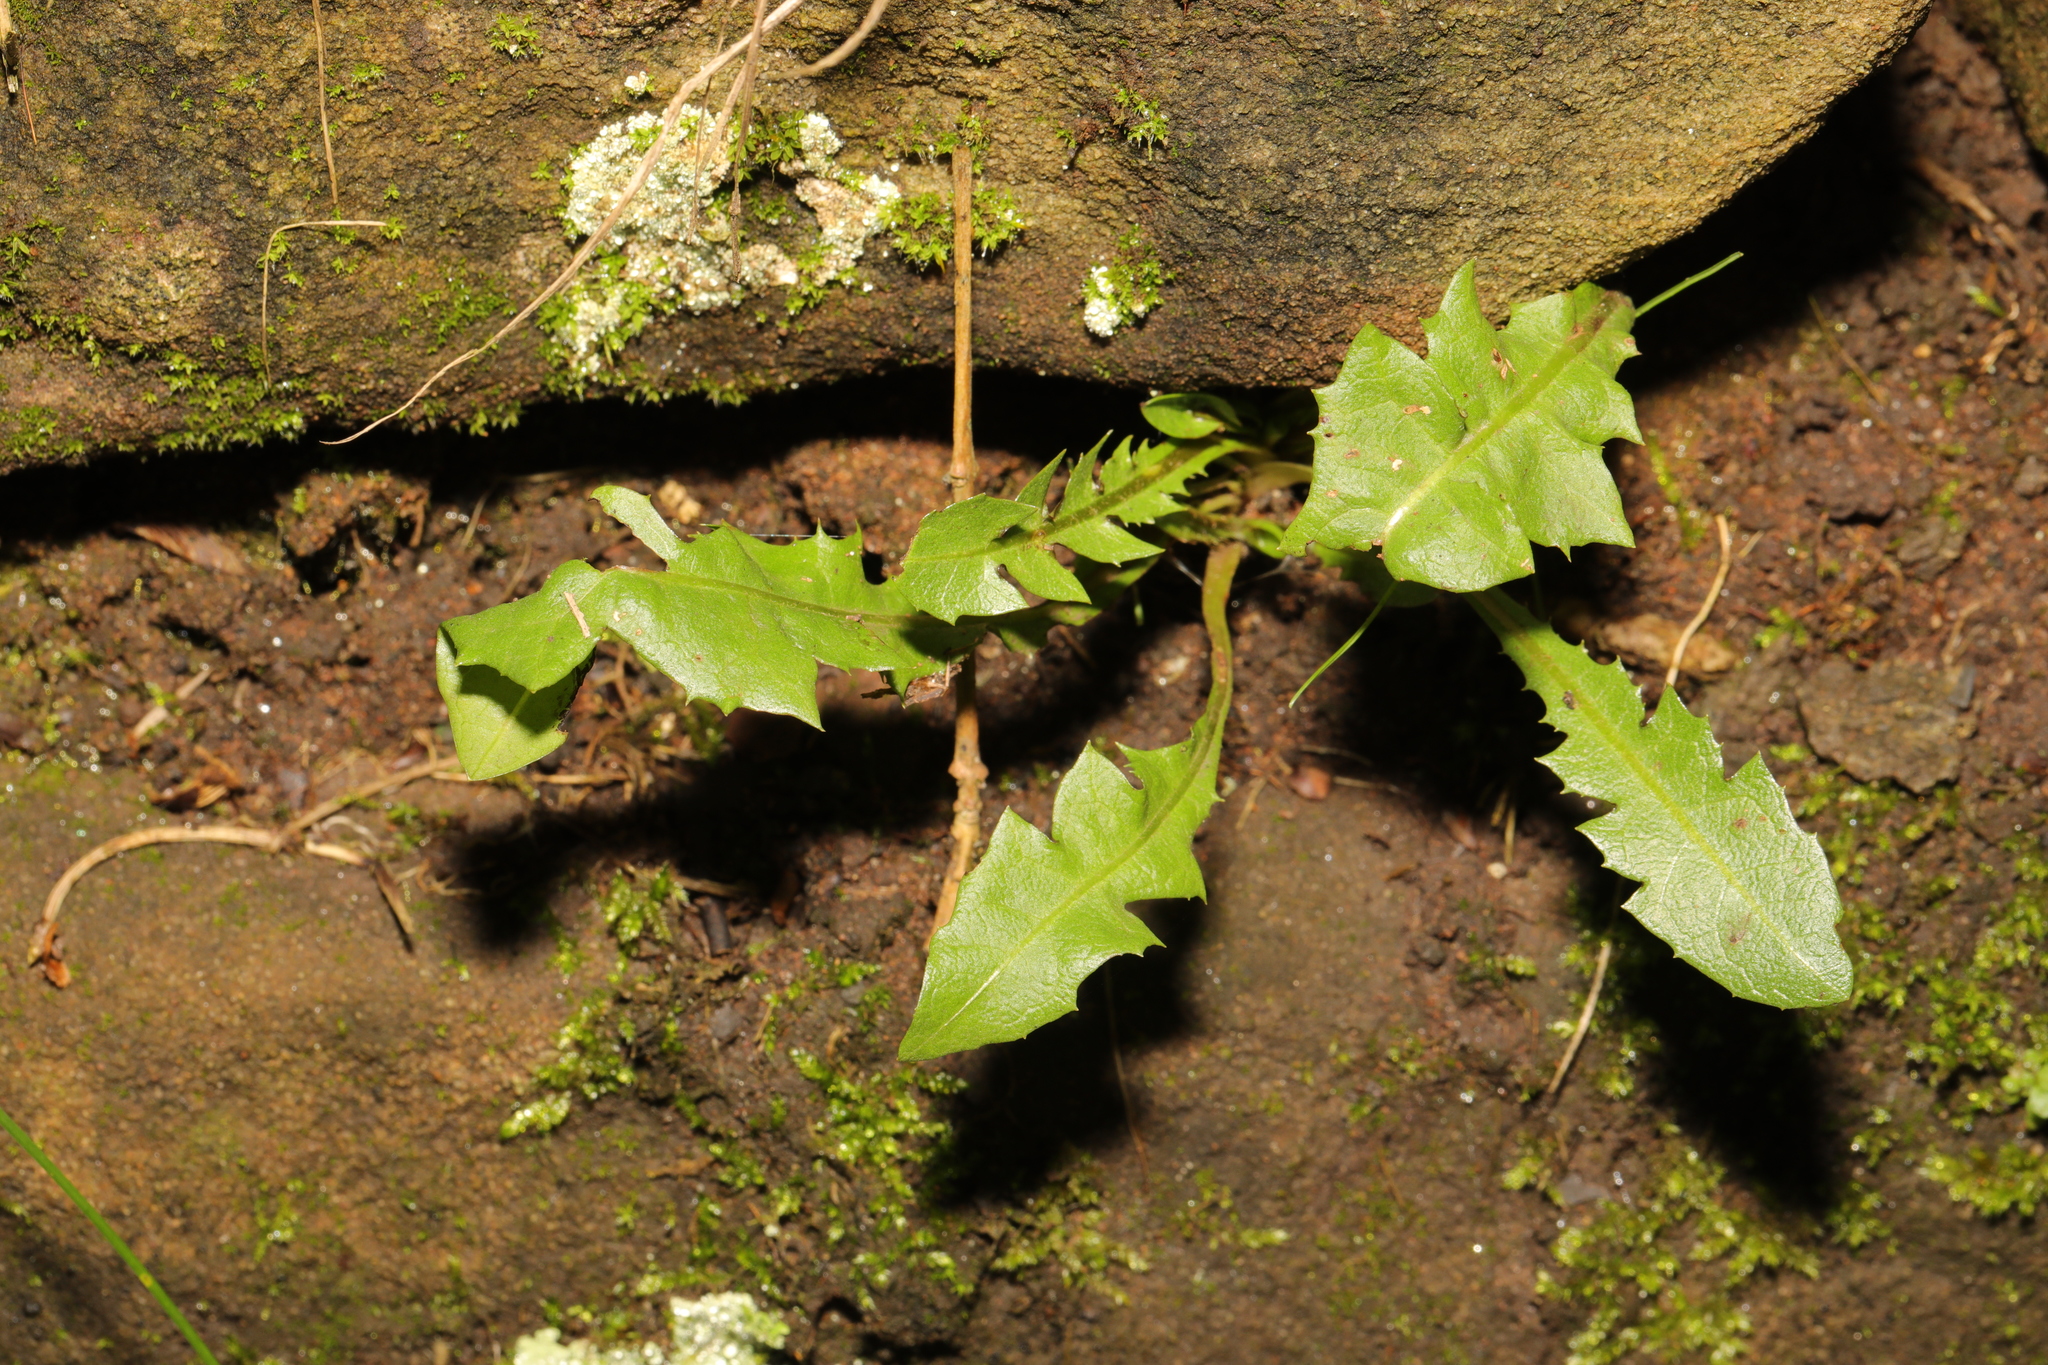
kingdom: Plantae
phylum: Tracheophyta
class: Magnoliopsida
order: Asterales
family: Asteraceae
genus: Taraxacum
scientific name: Taraxacum officinale
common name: Common dandelion
